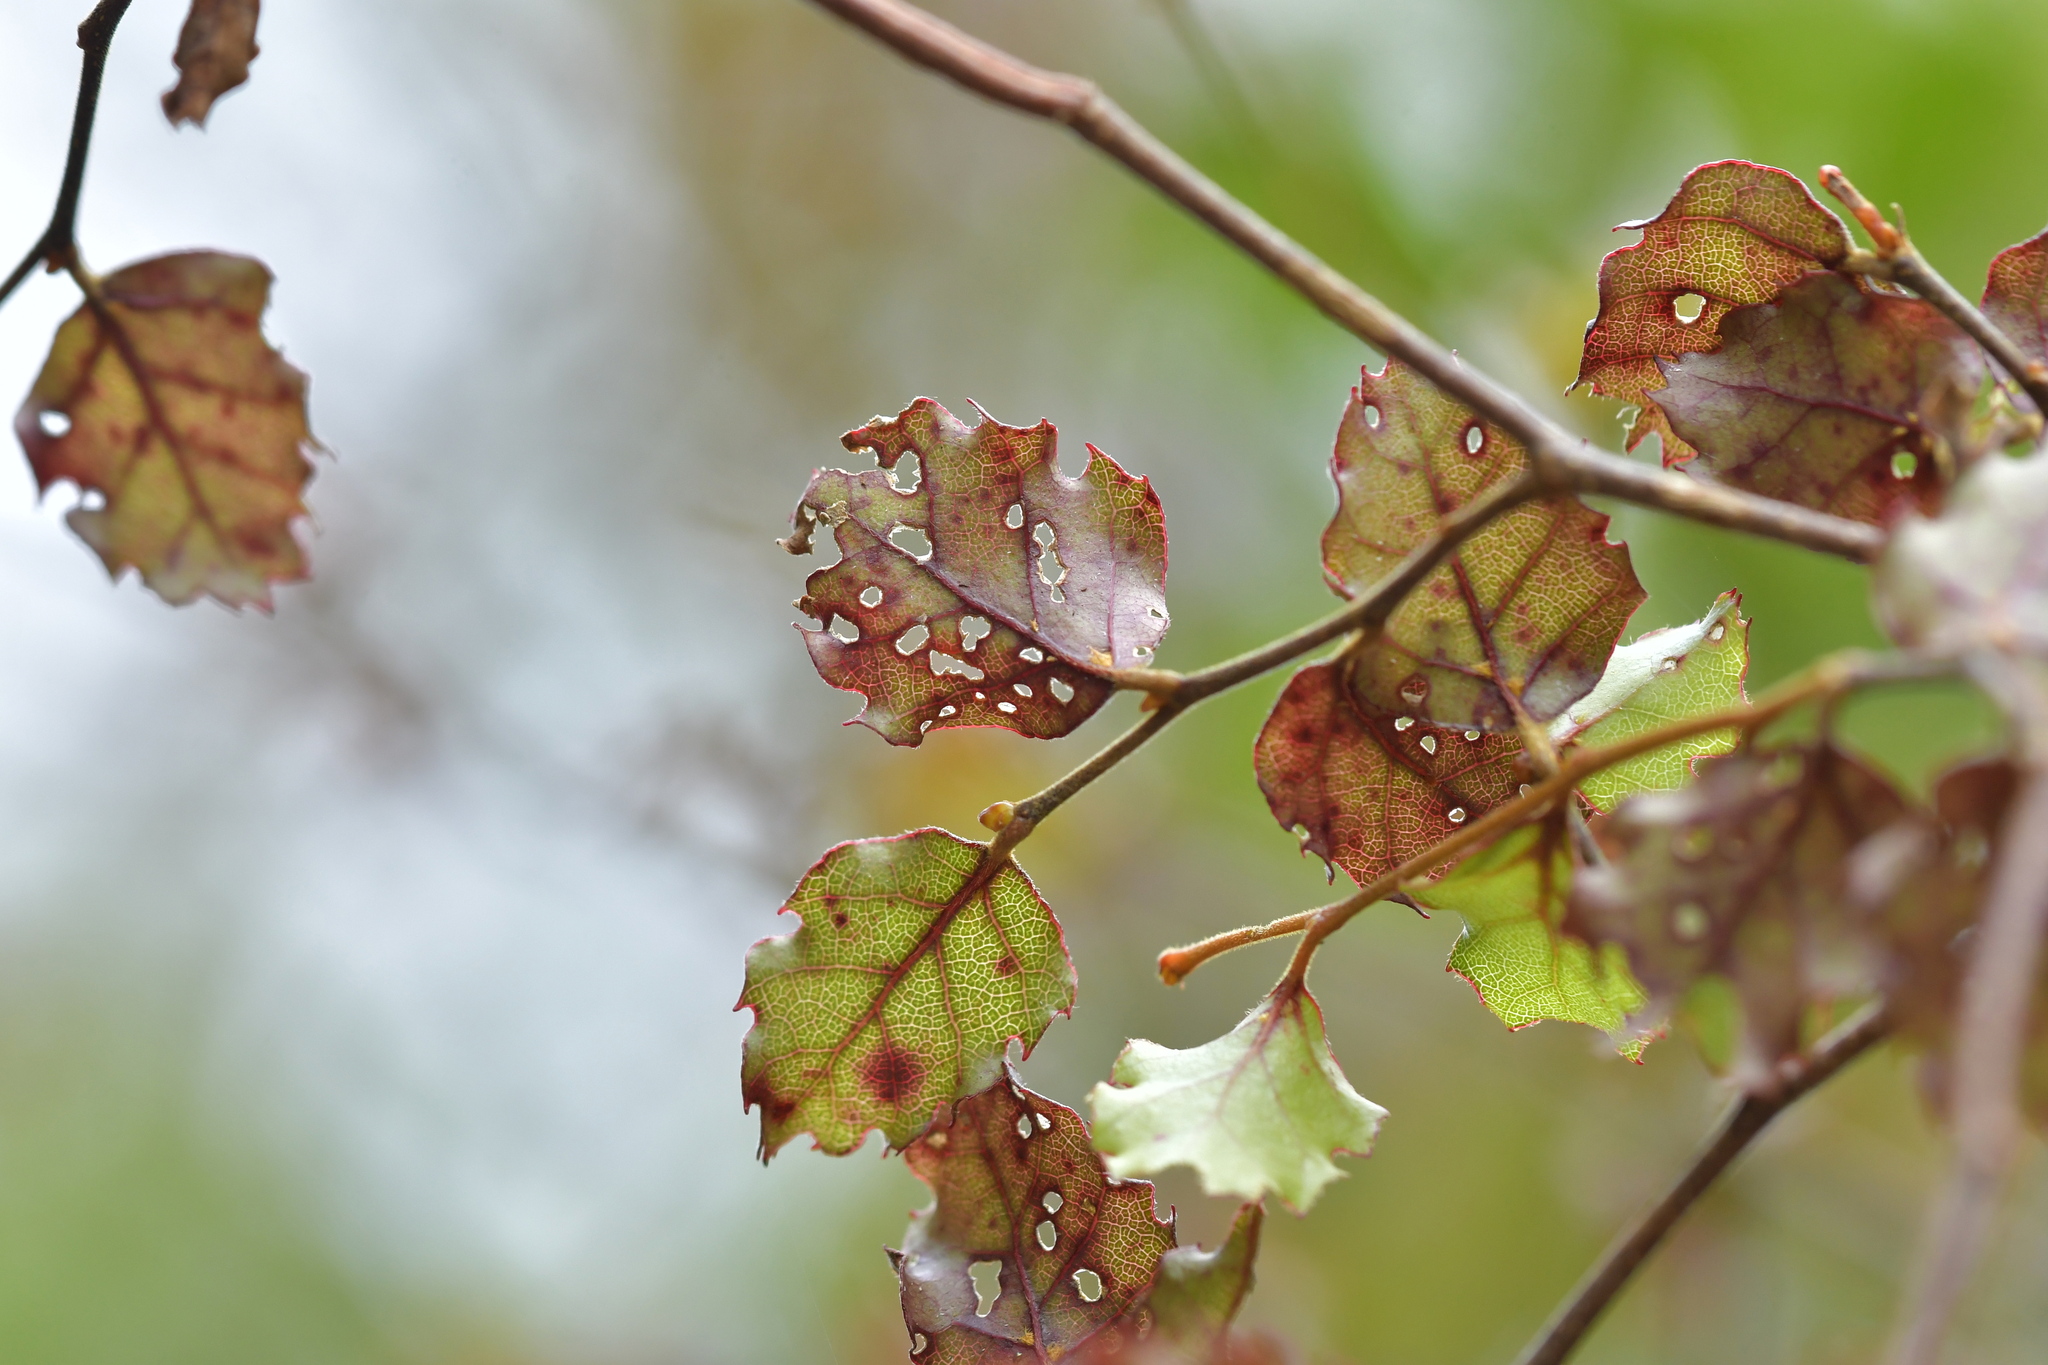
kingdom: Plantae
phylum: Tracheophyta
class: Magnoliopsida
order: Fagales
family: Nothofagaceae
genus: Nothofagus
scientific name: Nothofagus fusca
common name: Red beech
